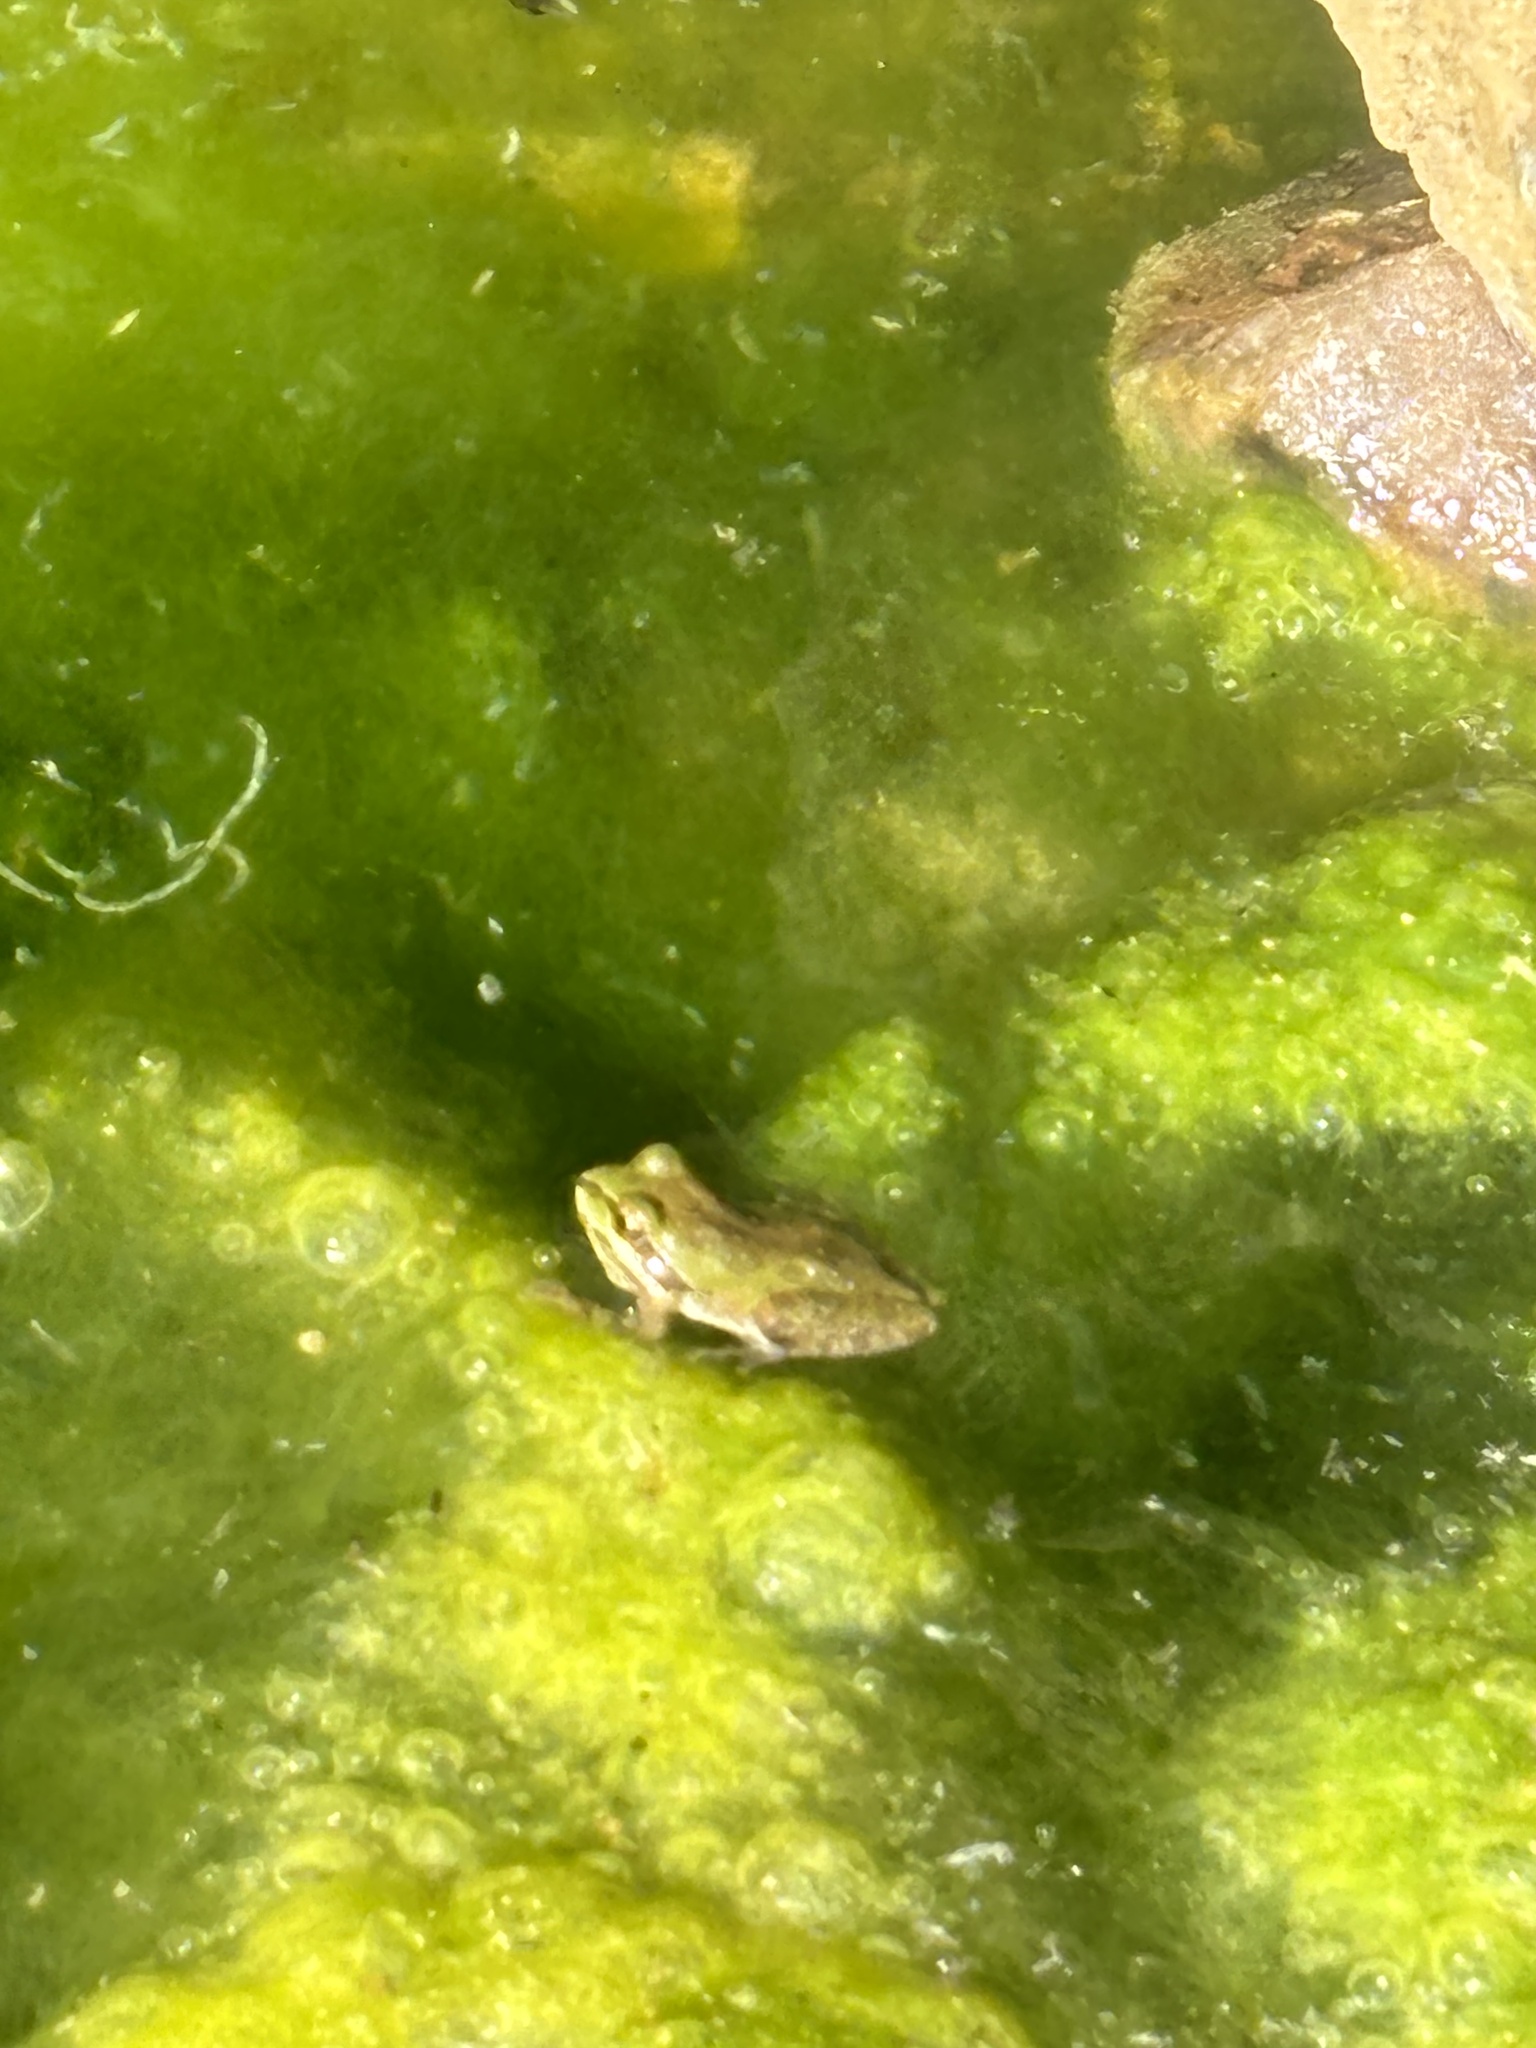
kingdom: Animalia
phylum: Chordata
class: Amphibia
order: Anura
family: Hylidae
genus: Pseudacris
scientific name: Pseudacris regilla
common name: Pacific chorus frog
